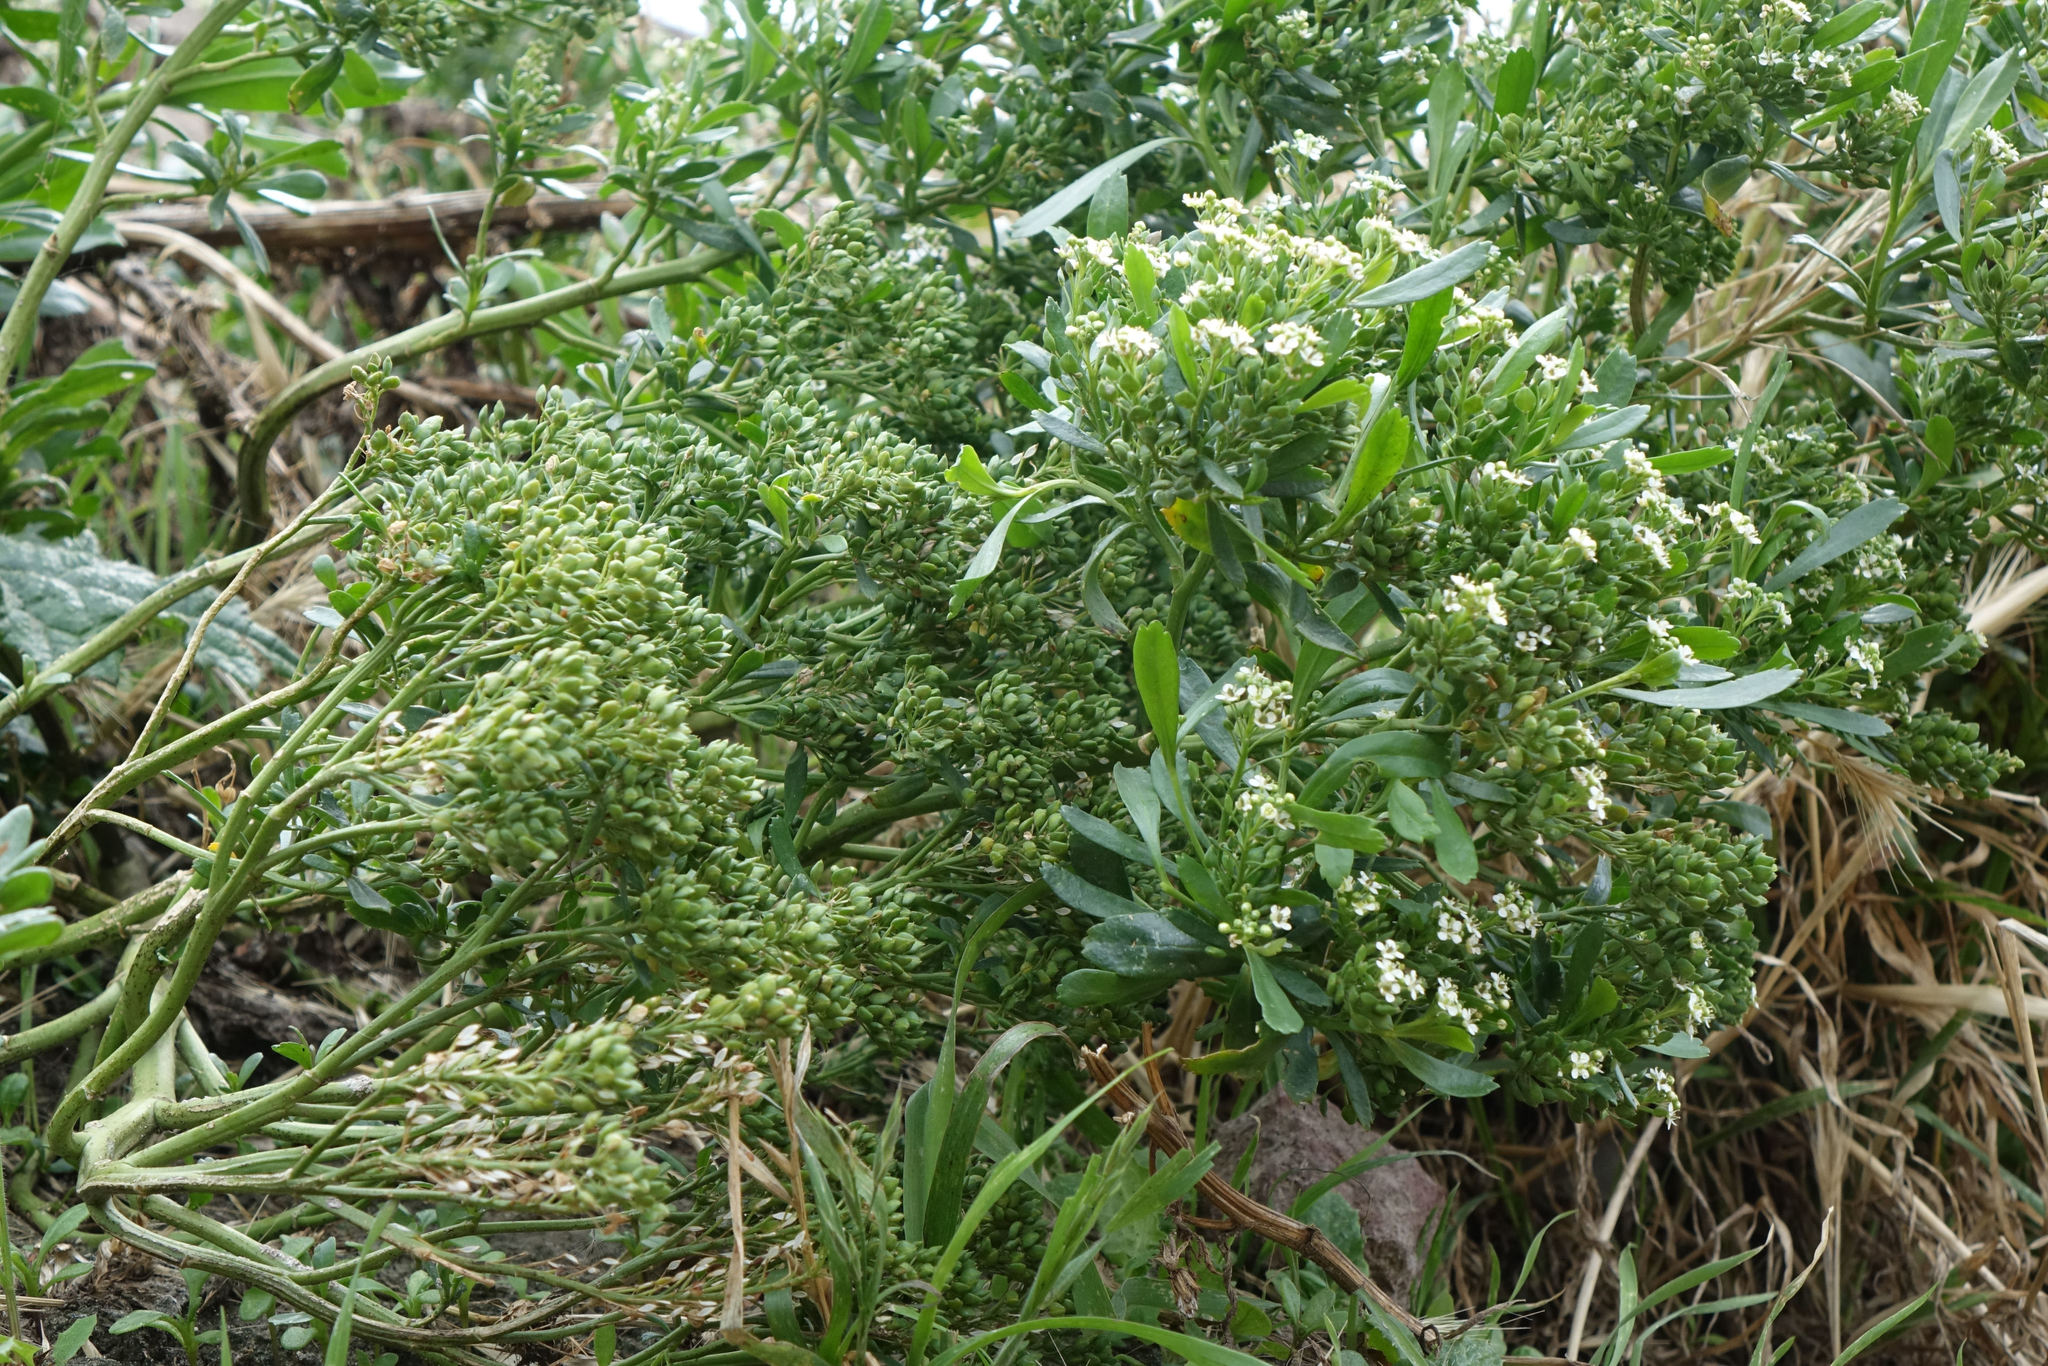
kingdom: Plantae
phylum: Tracheophyta
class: Magnoliopsida
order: Brassicales
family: Brassicaceae
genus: Lepidium
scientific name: Lepidium crassum
